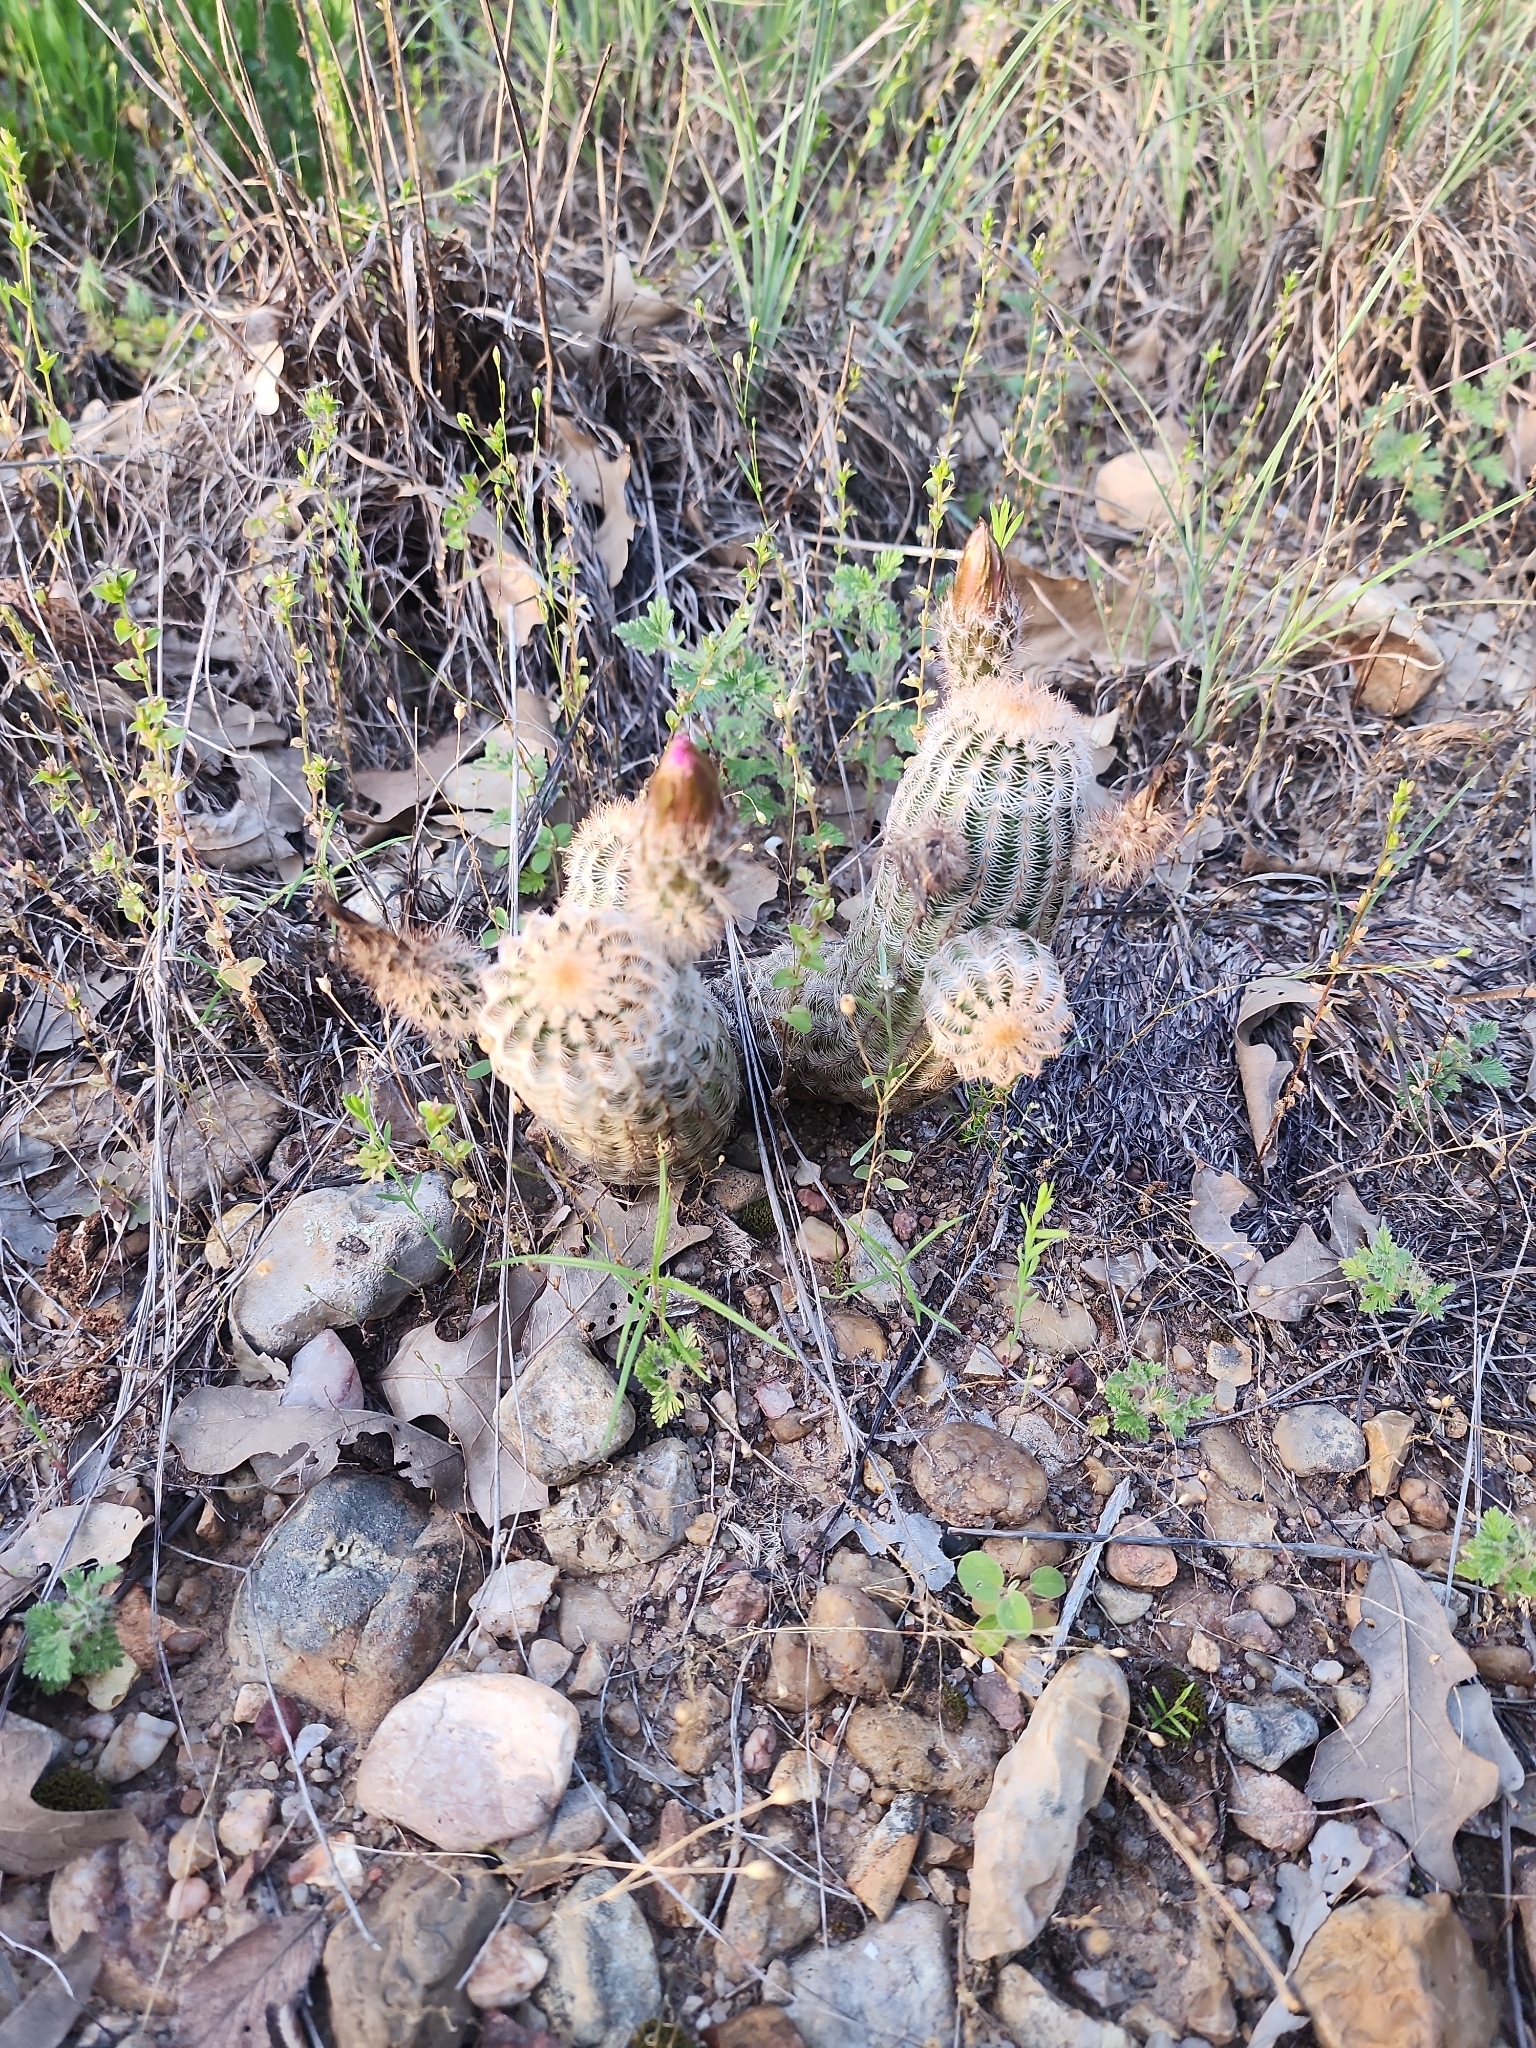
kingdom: Plantae
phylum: Tracheophyta
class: Magnoliopsida
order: Caryophyllales
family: Cactaceae
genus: Echinocereus
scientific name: Echinocereus reichenbachii
